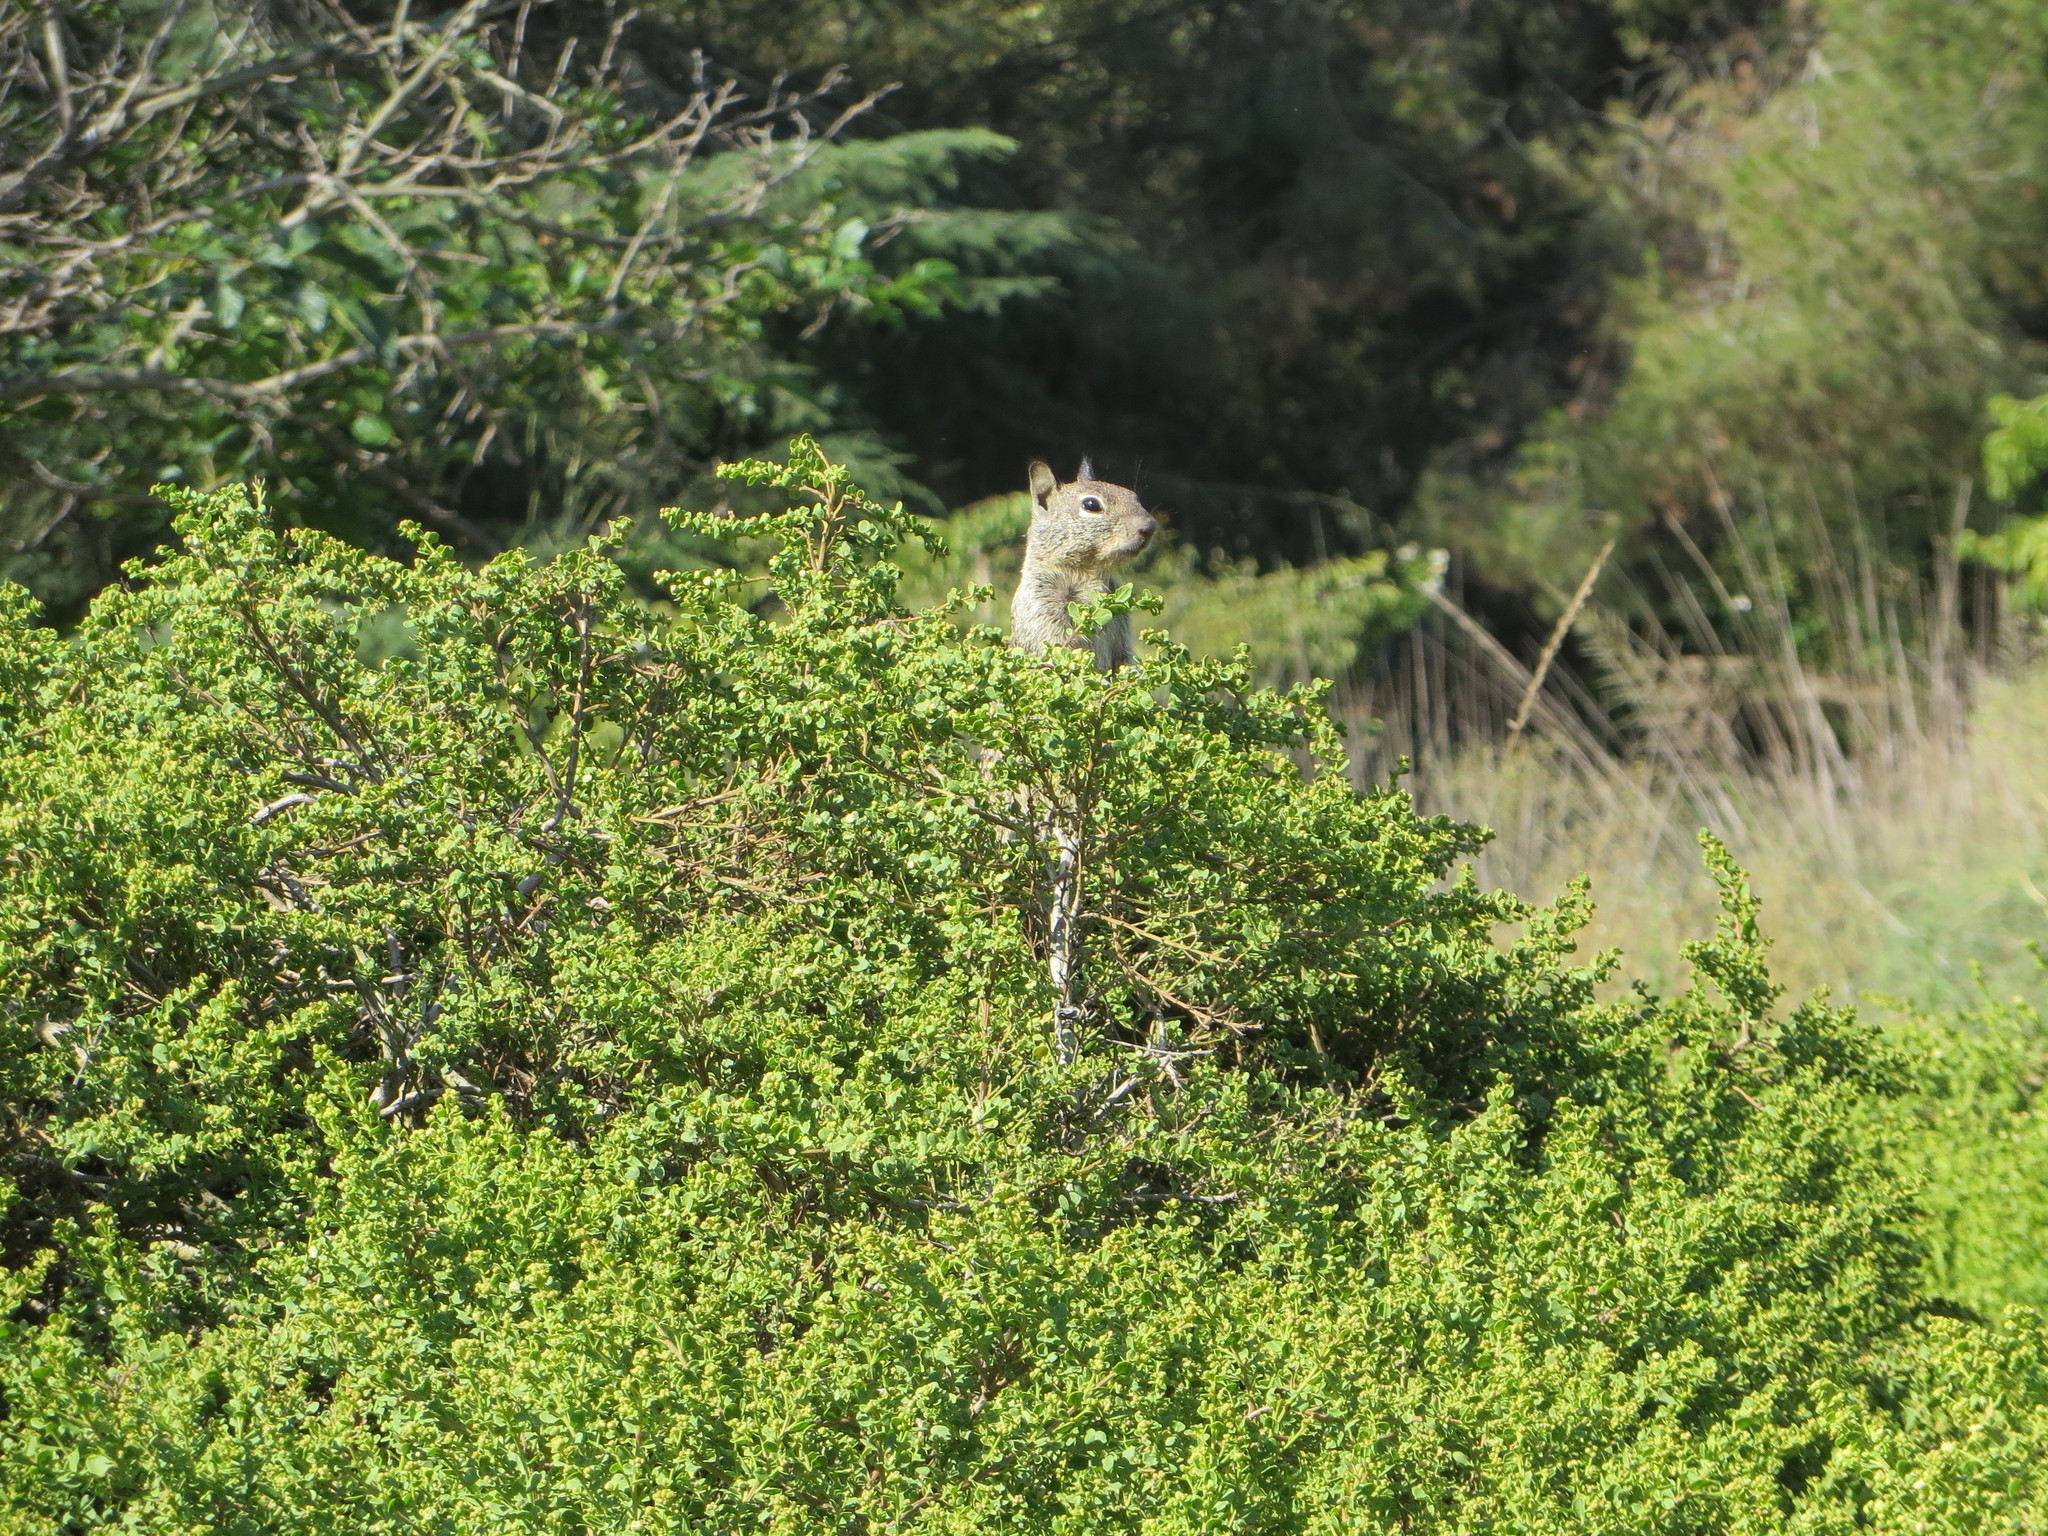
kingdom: Animalia
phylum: Chordata
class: Mammalia
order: Rodentia
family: Sciuridae
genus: Otospermophilus
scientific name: Otospermophilus beecheyi
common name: California ground squirrel
